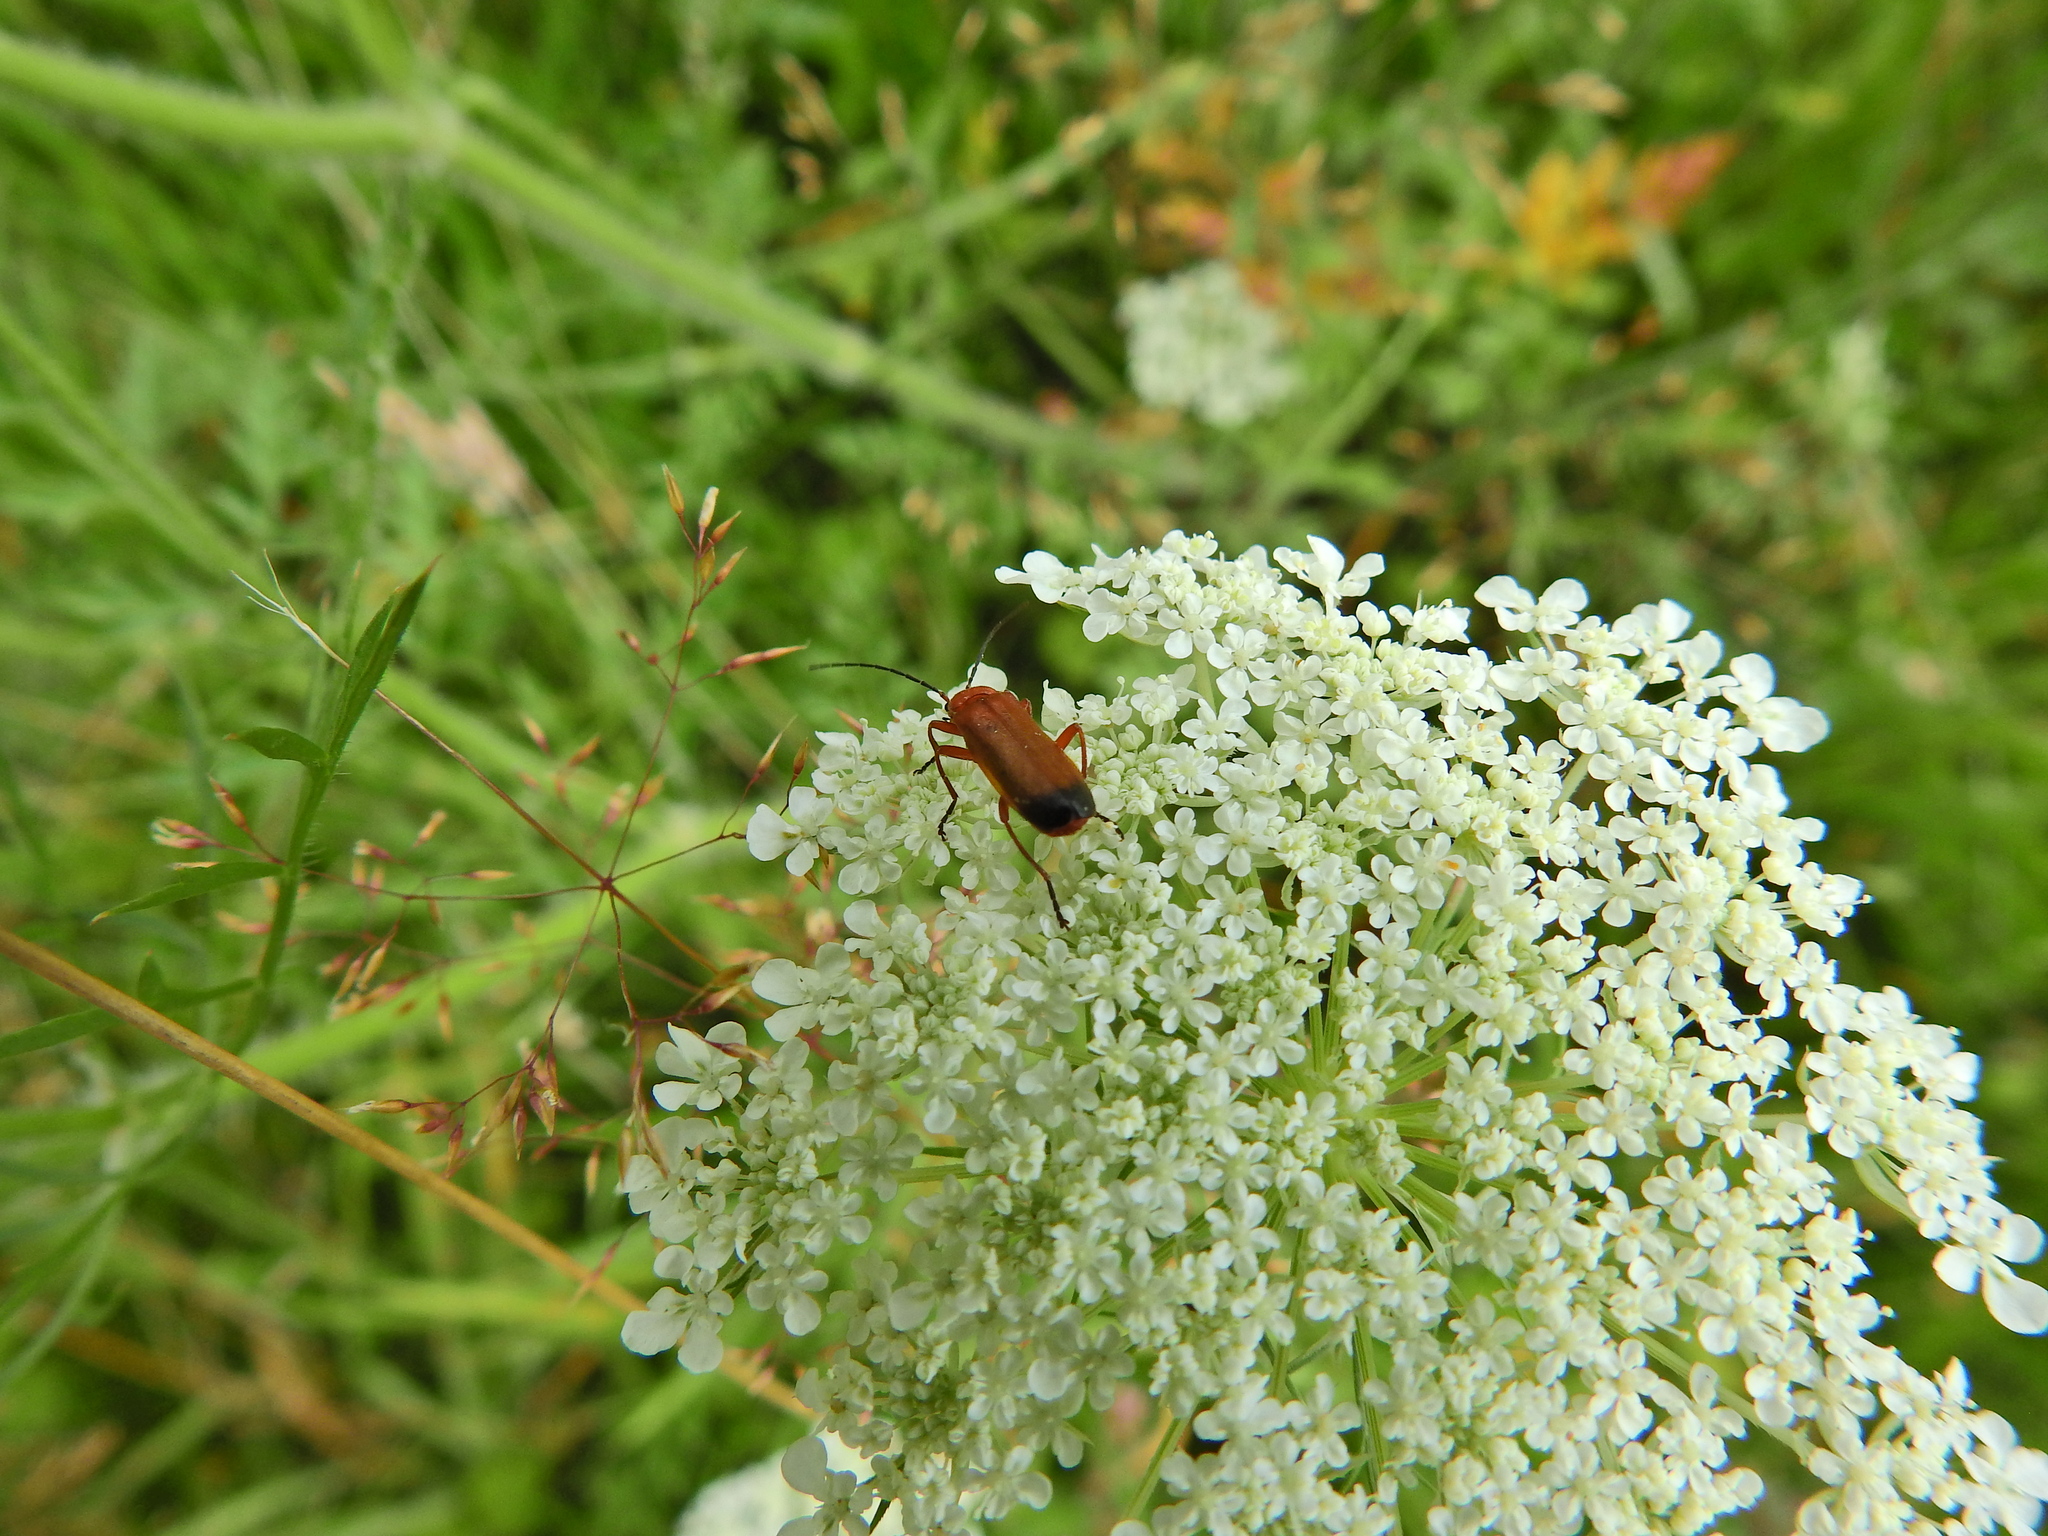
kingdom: Animalia
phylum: Arthropoda
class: Insecta
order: Coleoptera
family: Cantharidae
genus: Rhagonycha
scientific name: Rhagonycha fulva
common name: Common red soldier beetle
